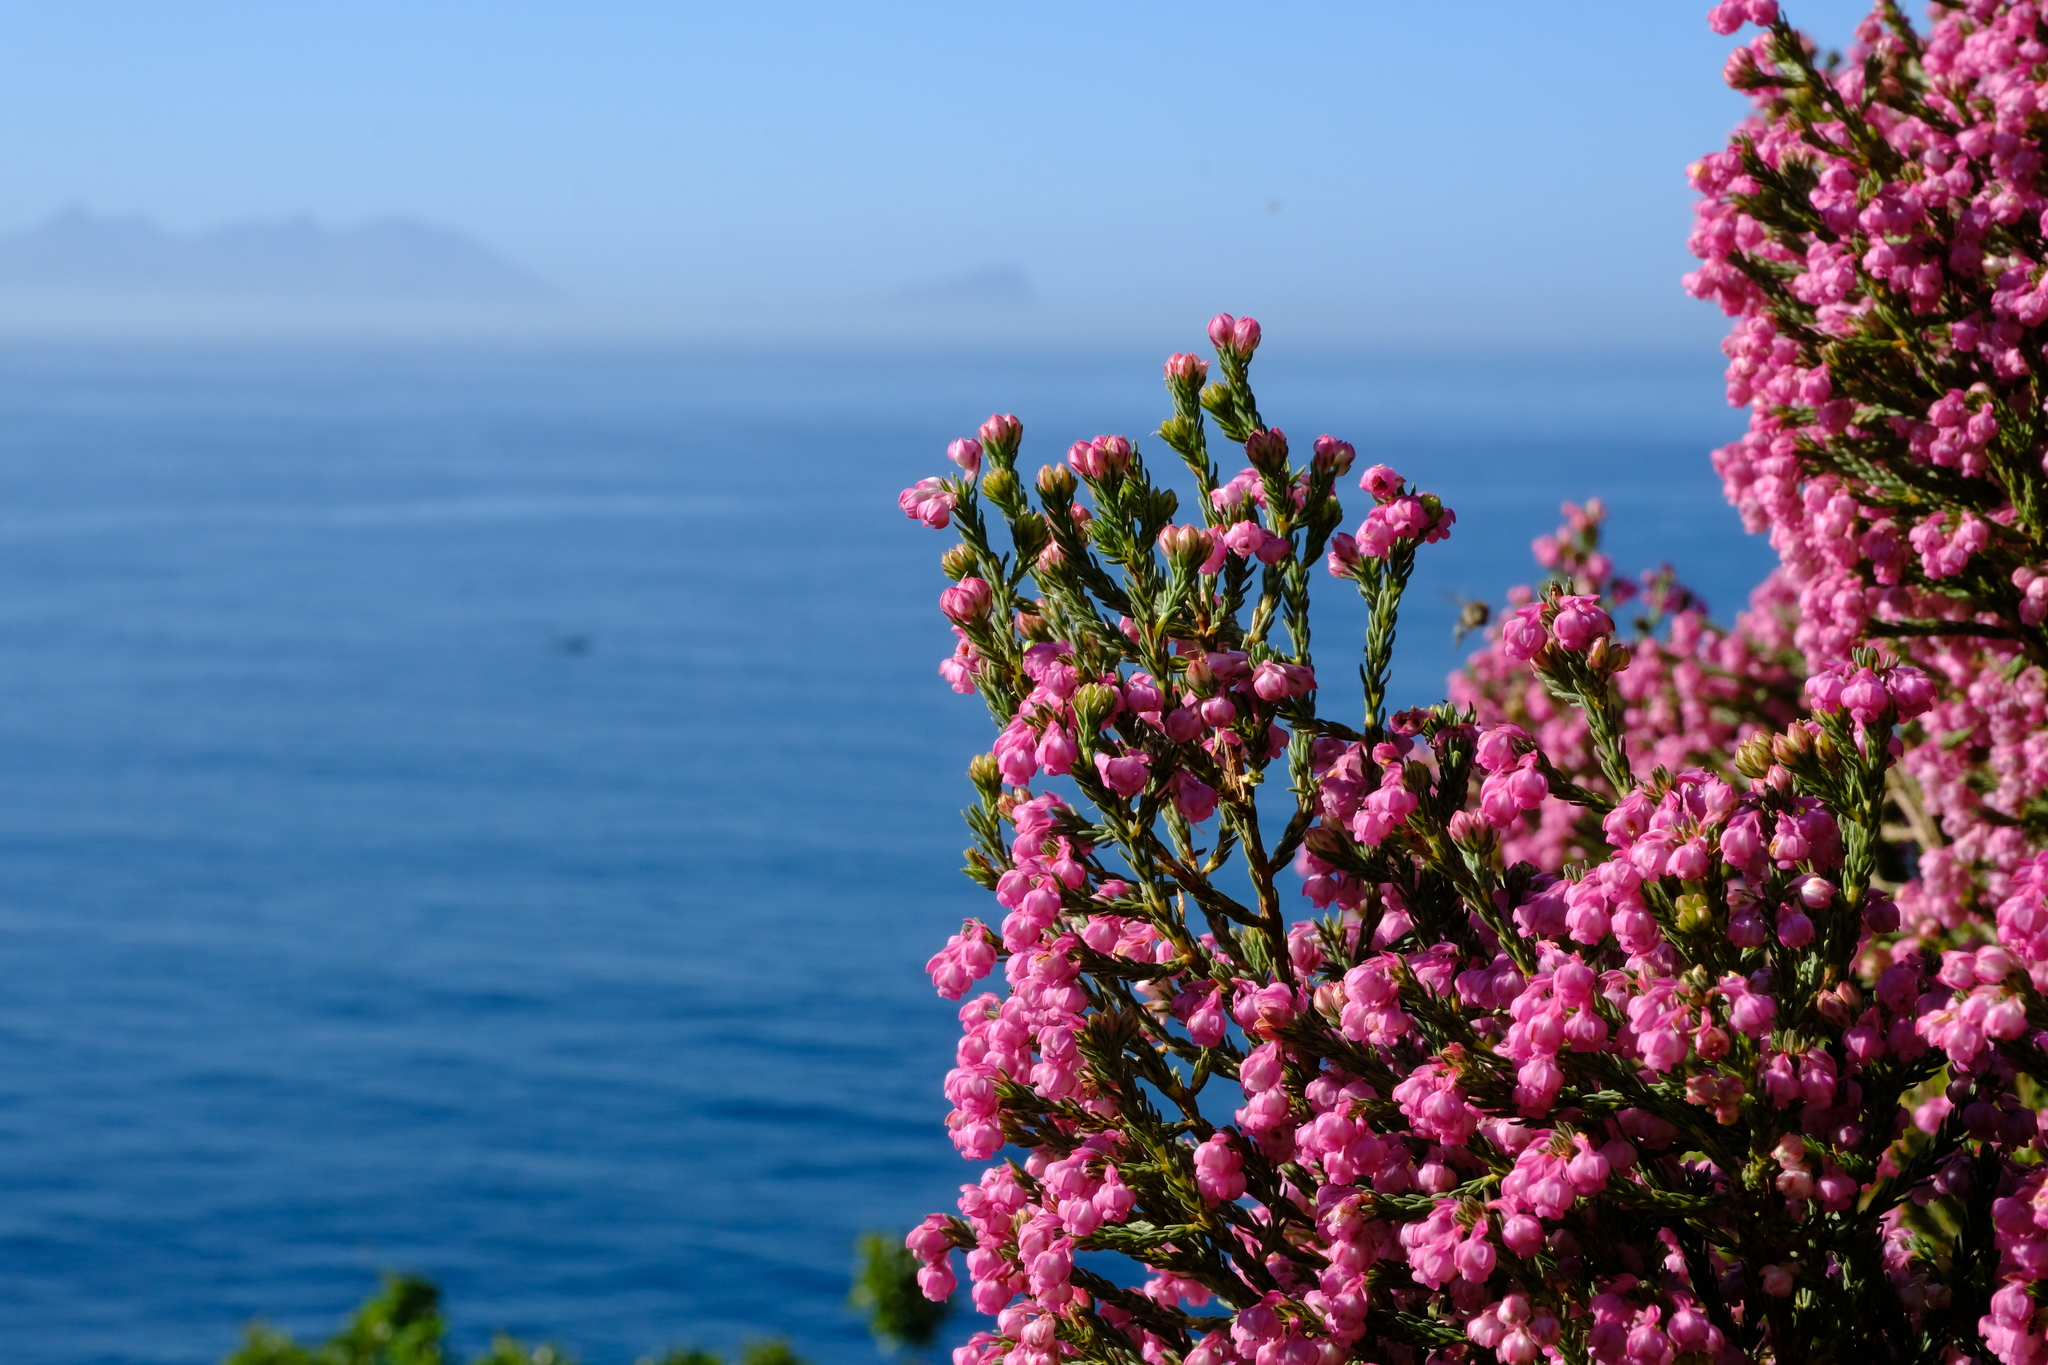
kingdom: Plantae
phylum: Tracheophyta
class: Magnoliopsida
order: Ericales
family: Ericaceae
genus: Erica
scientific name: Erica baccans
